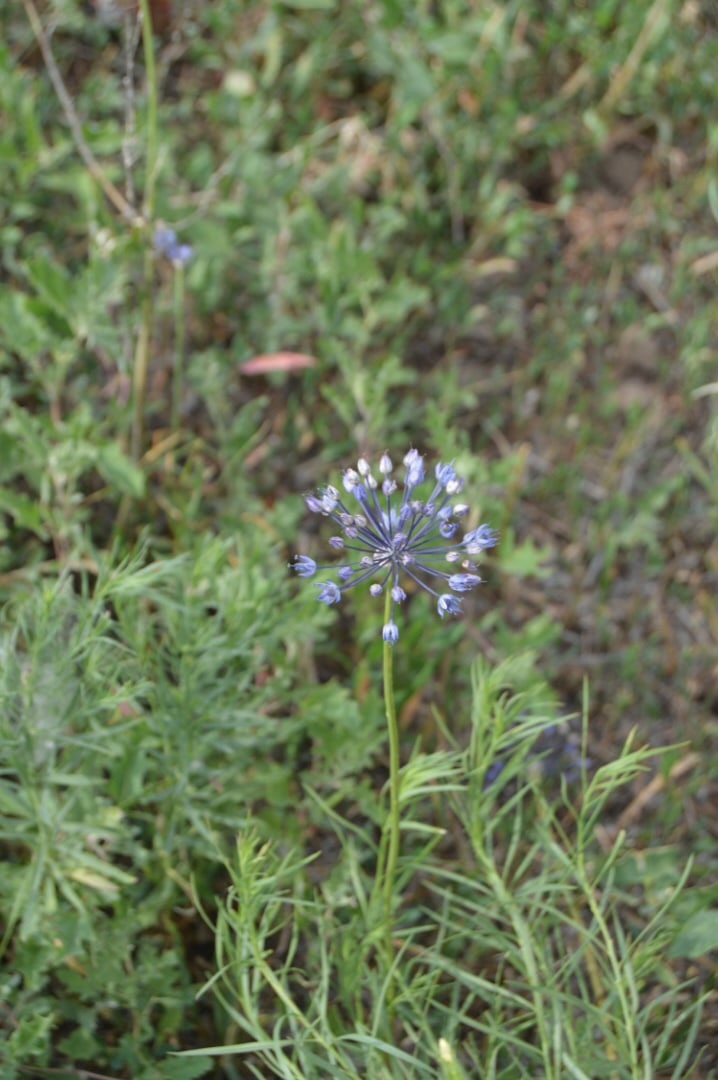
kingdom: Plantae
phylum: Tracheophyta
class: Liliopsida
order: Asparagales
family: Amaryllidaceae
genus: Allium
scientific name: Allium caeruleum
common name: Blue-of-the-heavens
